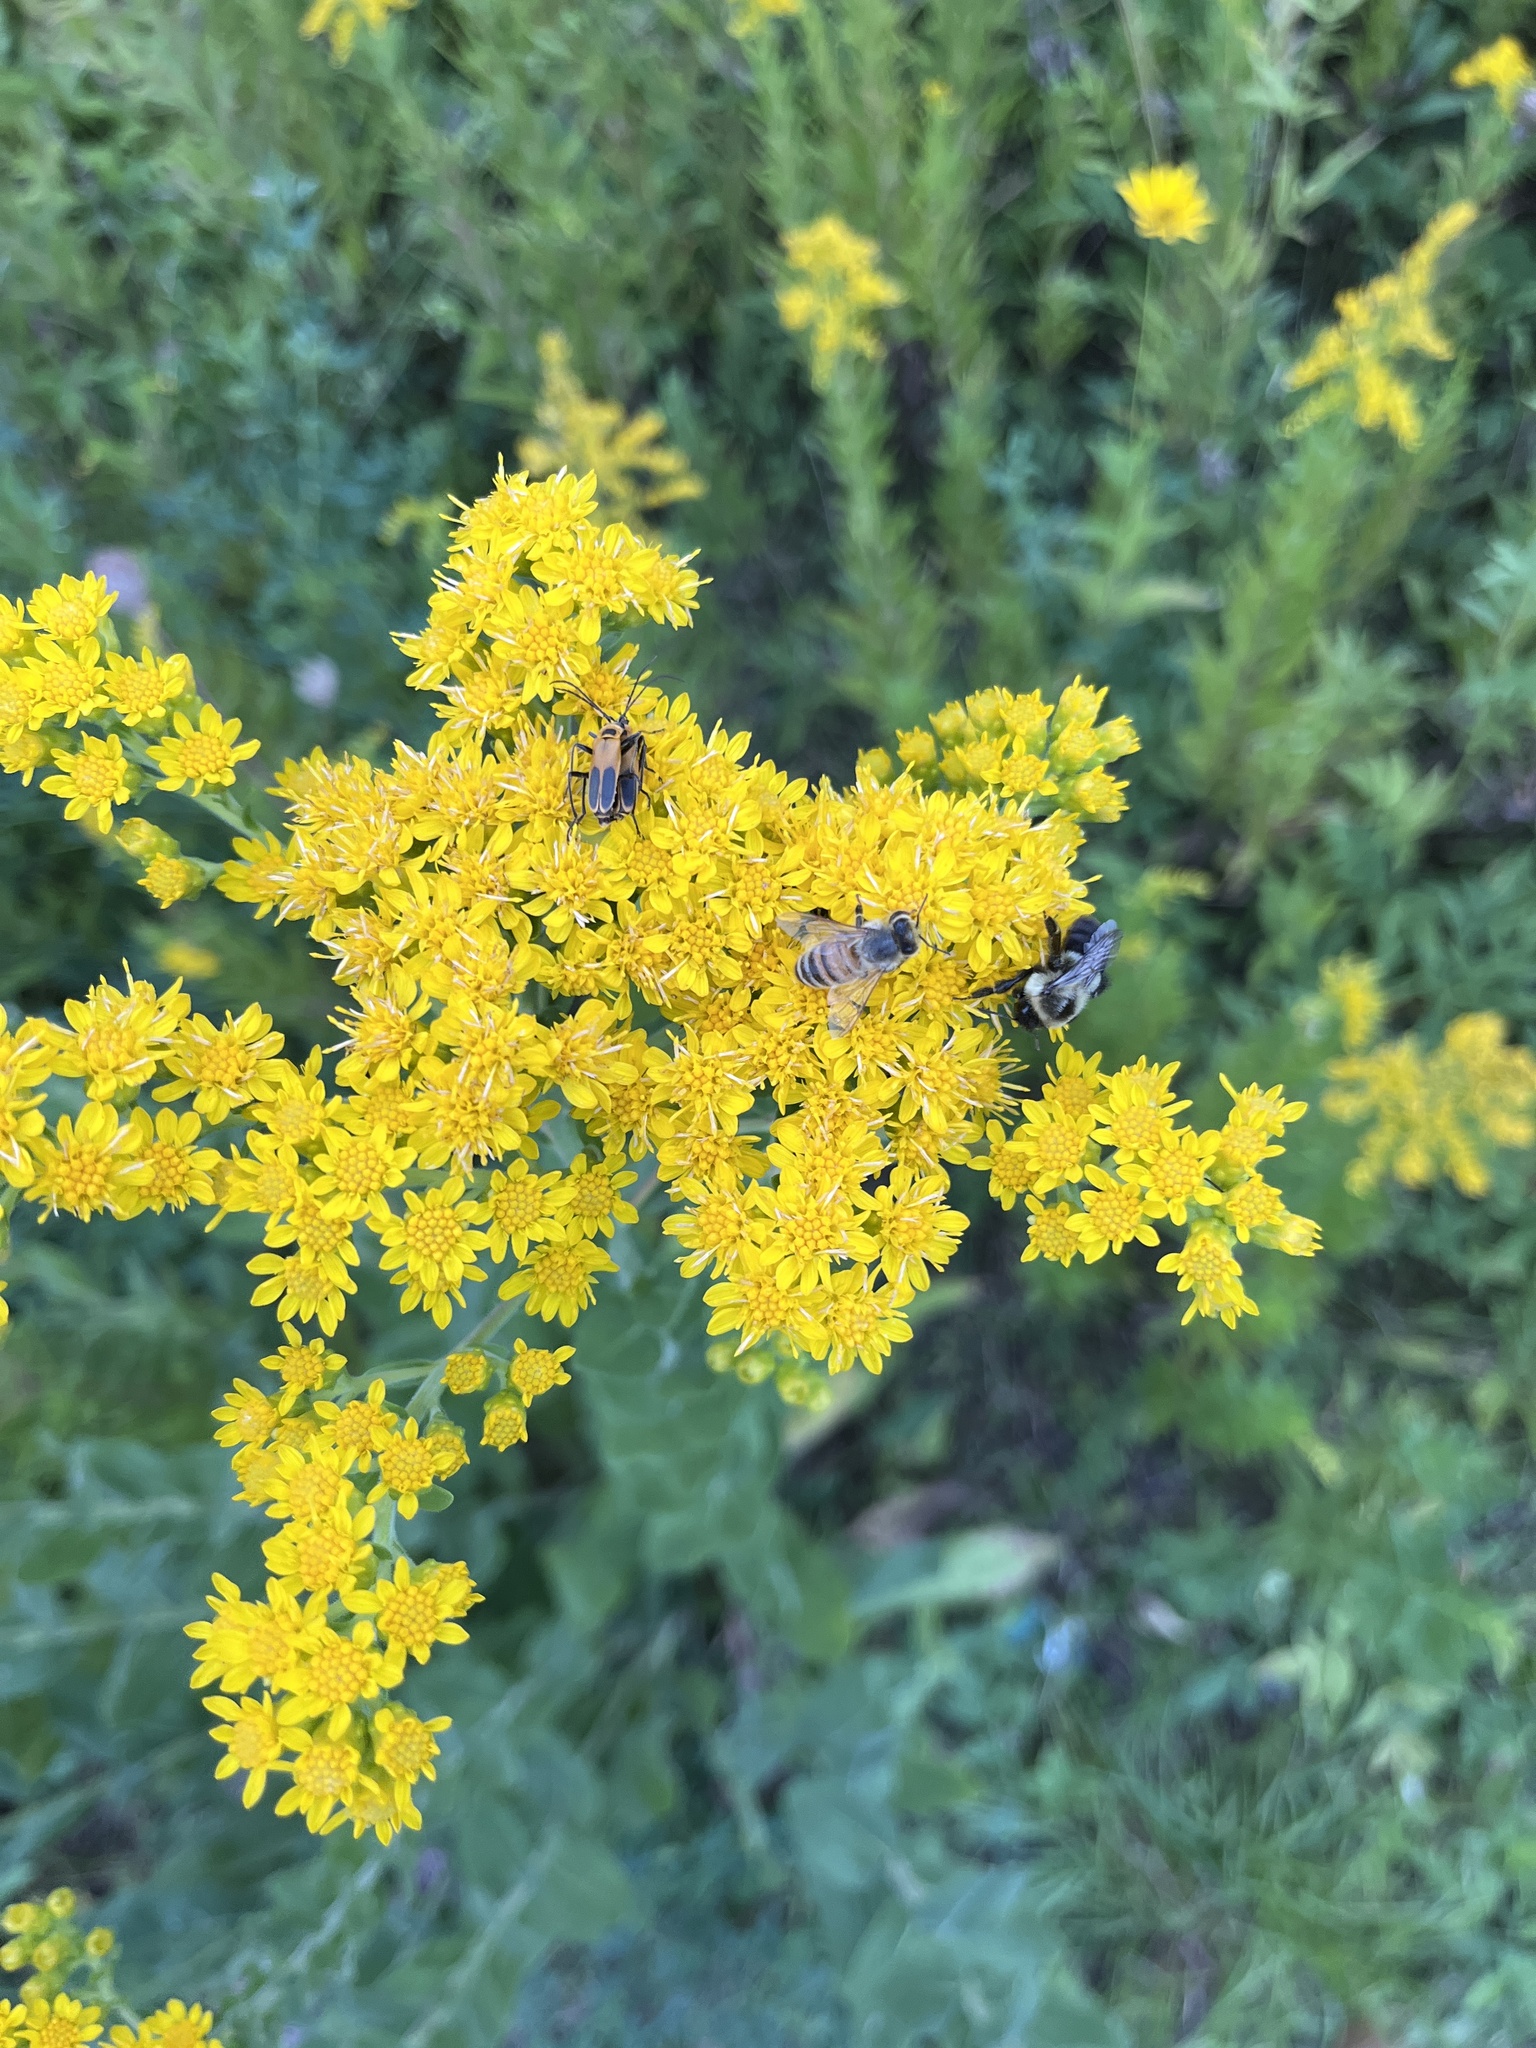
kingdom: Animalia
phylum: Arthropoda
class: Insecta
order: Hymenoptera
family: Apidae
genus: Apis
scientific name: Apis mellifera
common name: Honey bee
